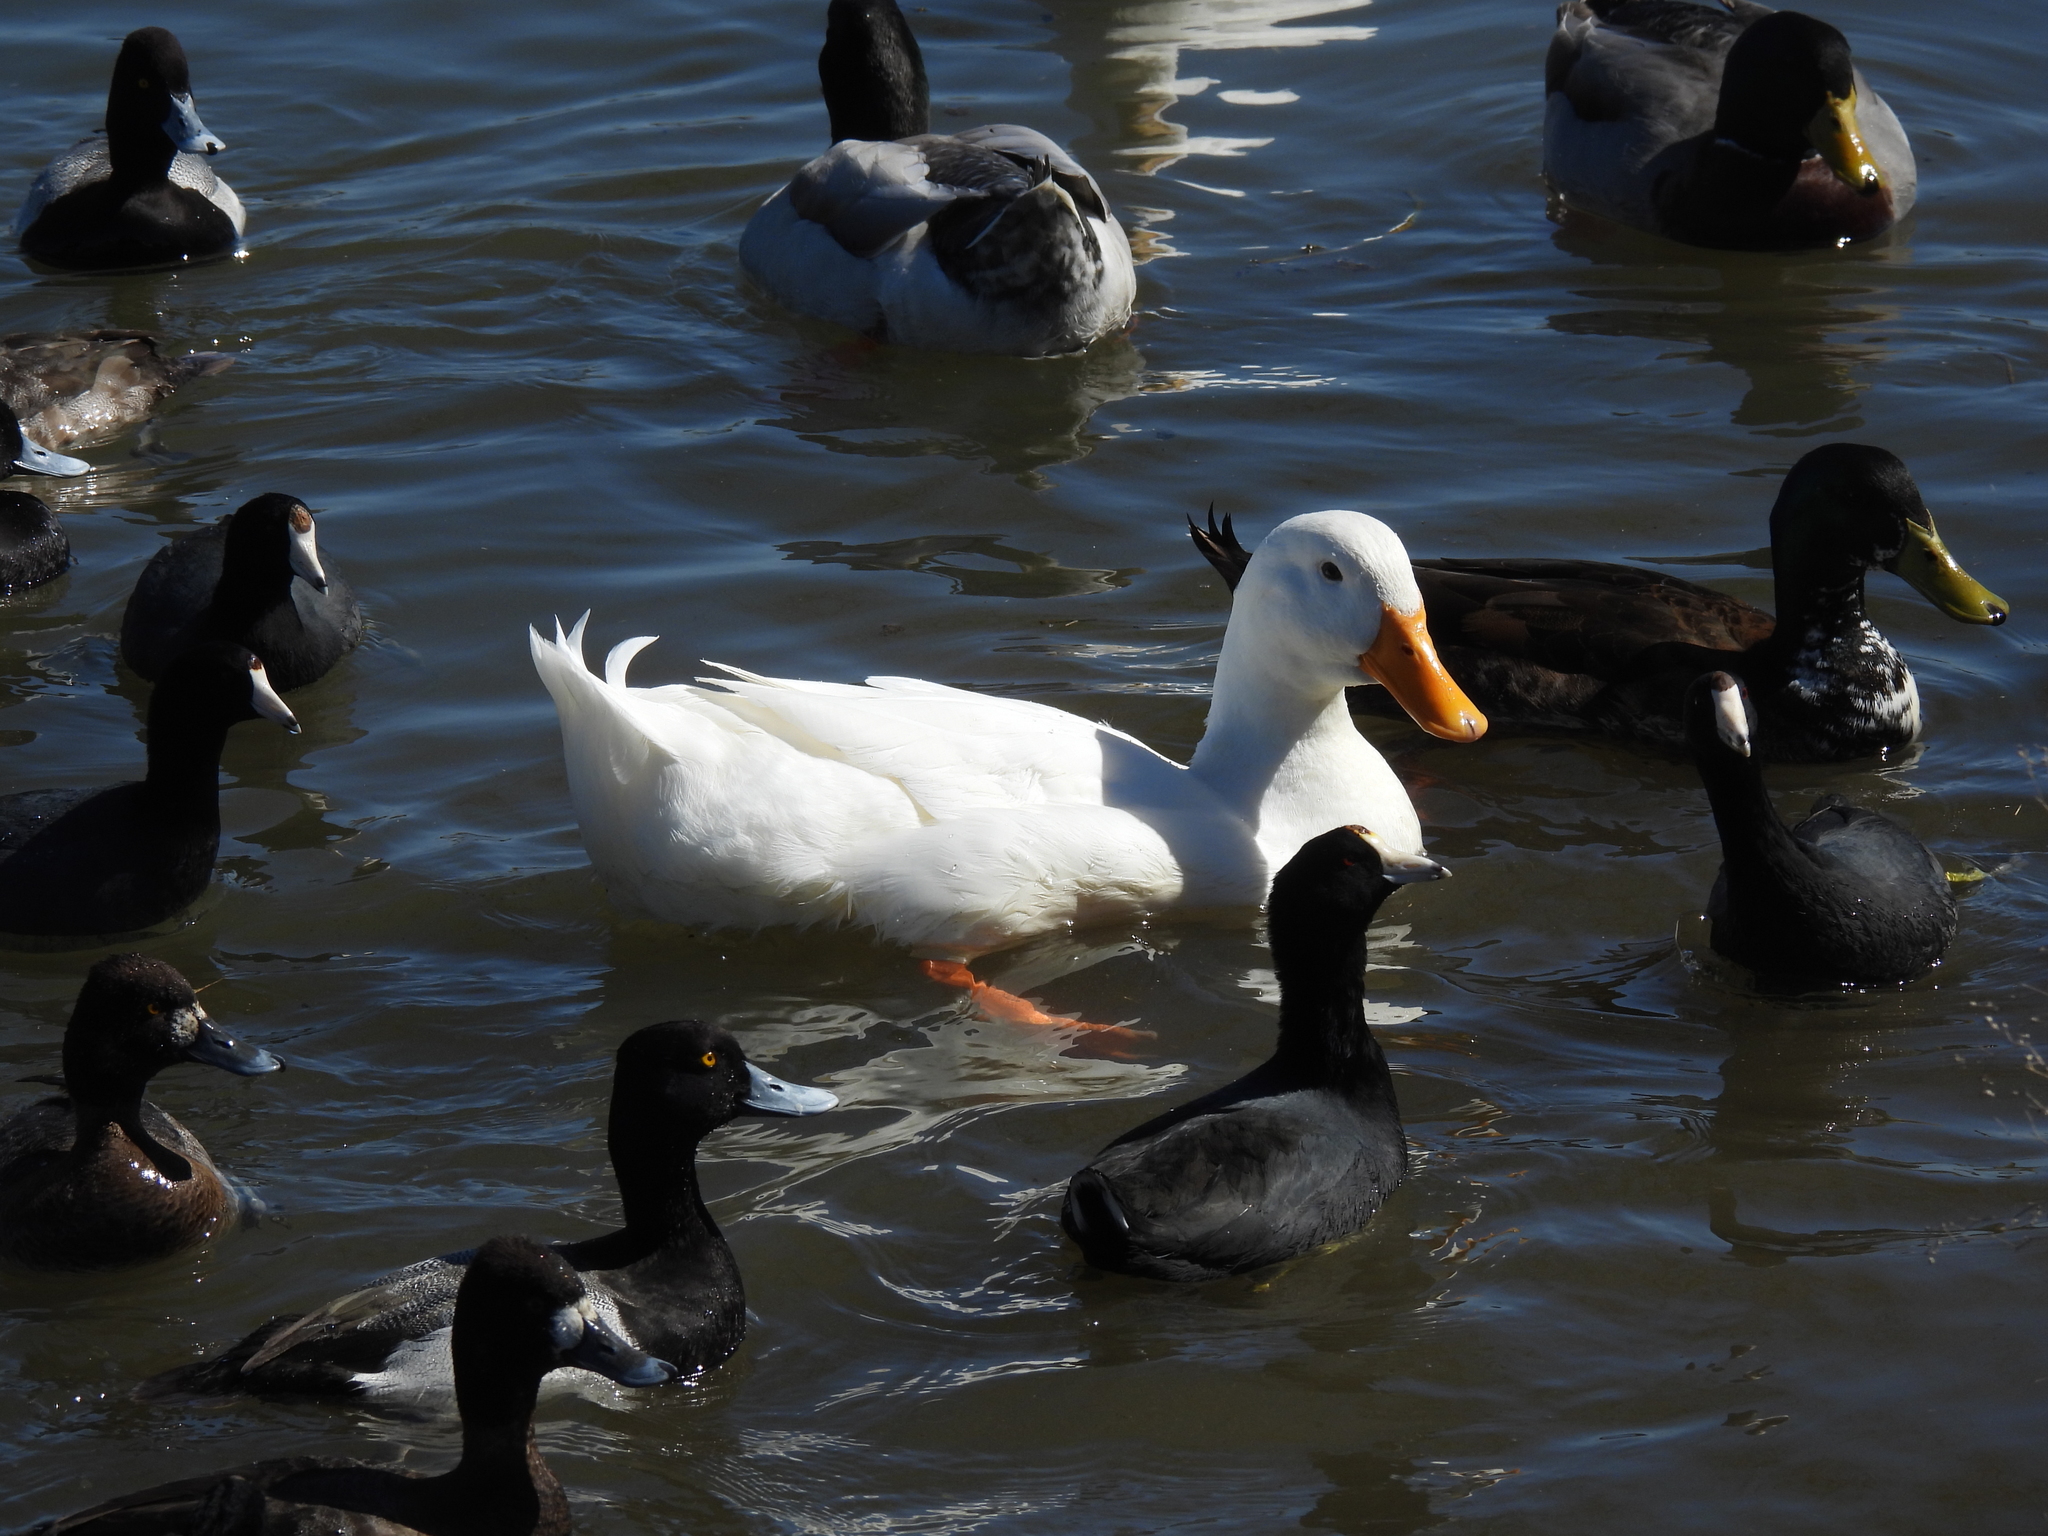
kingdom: Animalia
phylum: Chordata
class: Aves
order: Anseriformes
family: Anatidae
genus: Anas
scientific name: Anas platyrhynchos
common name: Mallard
